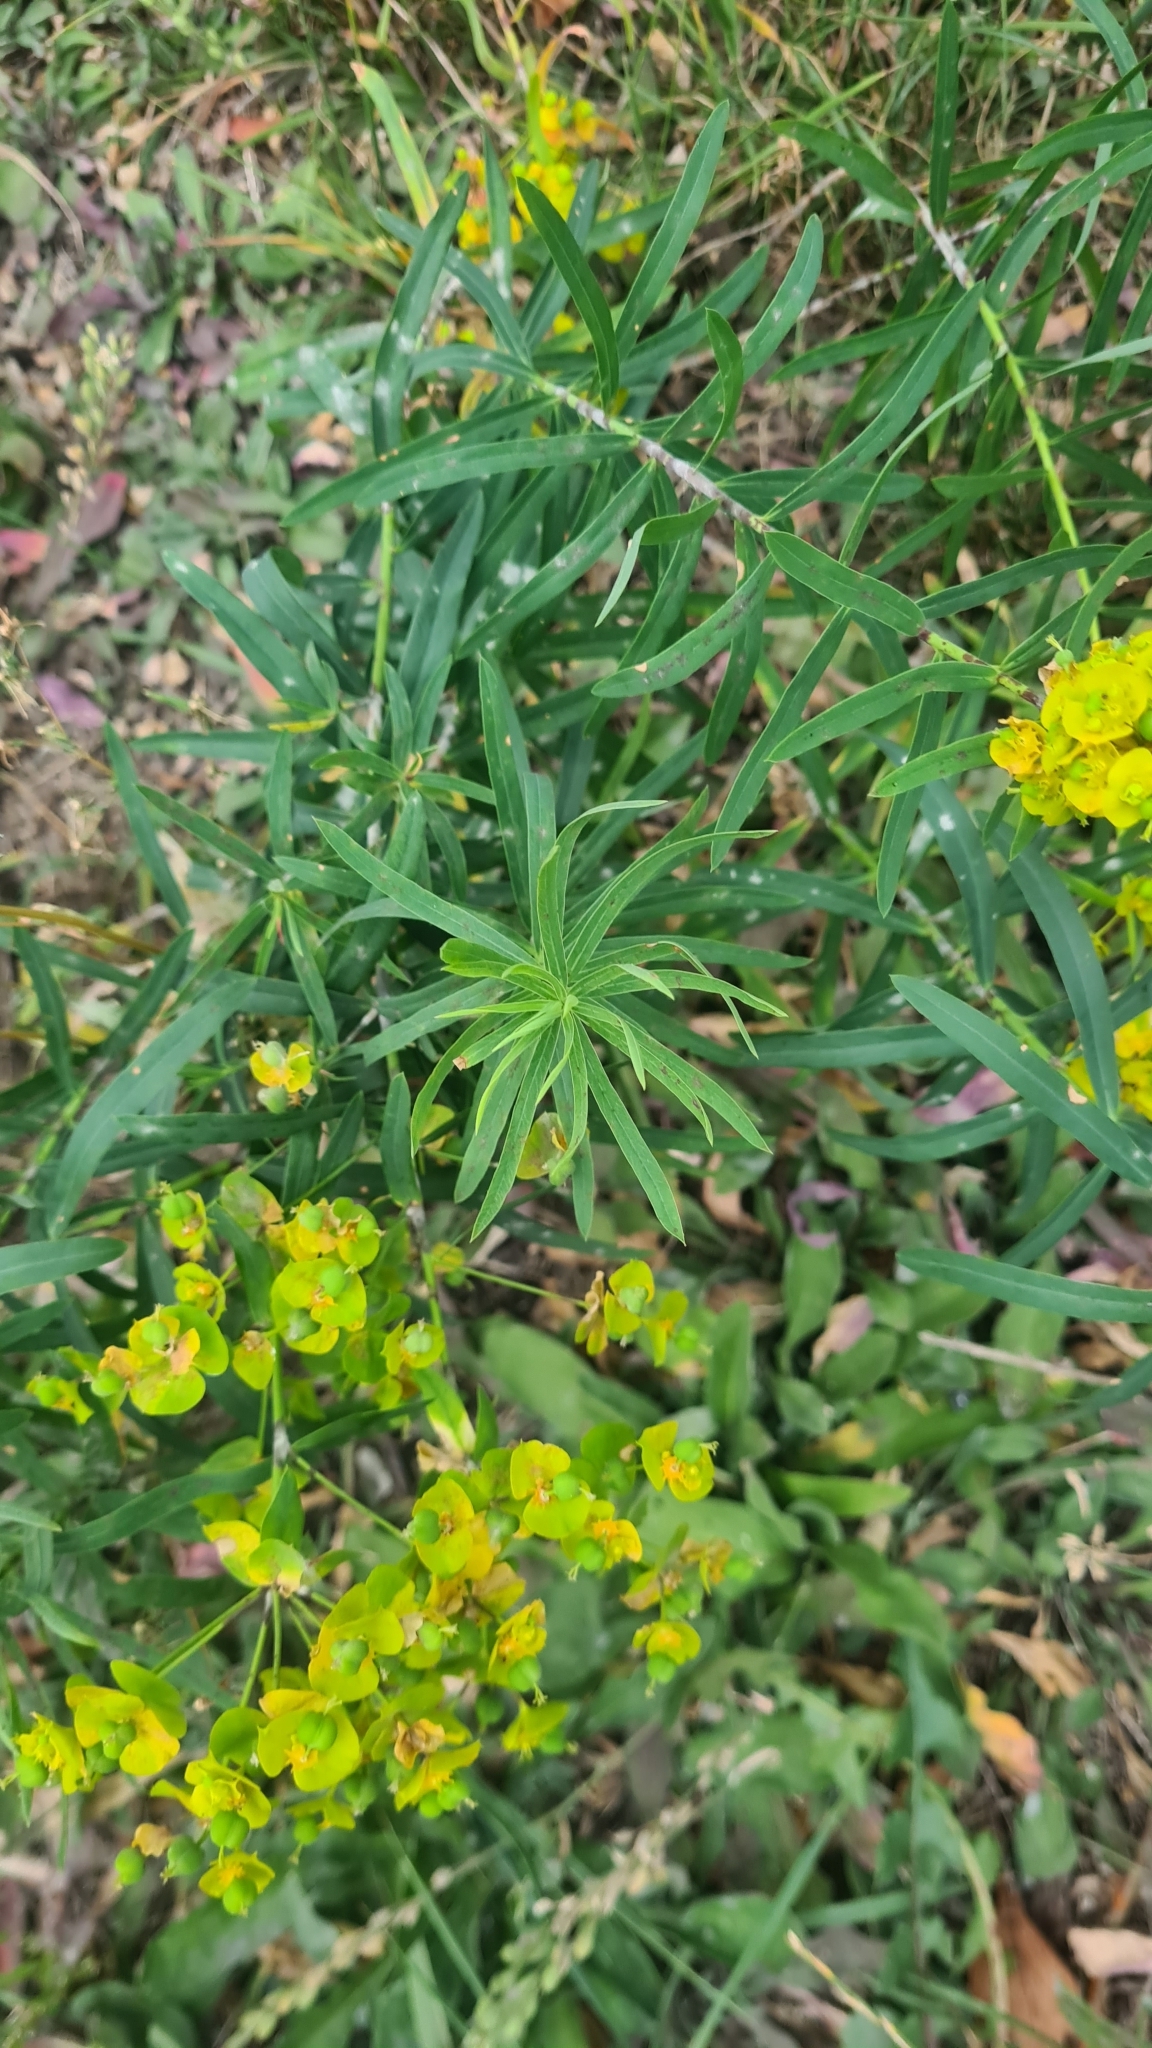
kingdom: Plantae
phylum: Tracheophyta
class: Magnoliopsida
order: Malpighiales
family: Euphorbiaceae
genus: Euphorbia
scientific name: Euphorbia virgata
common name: Leafy spurge
